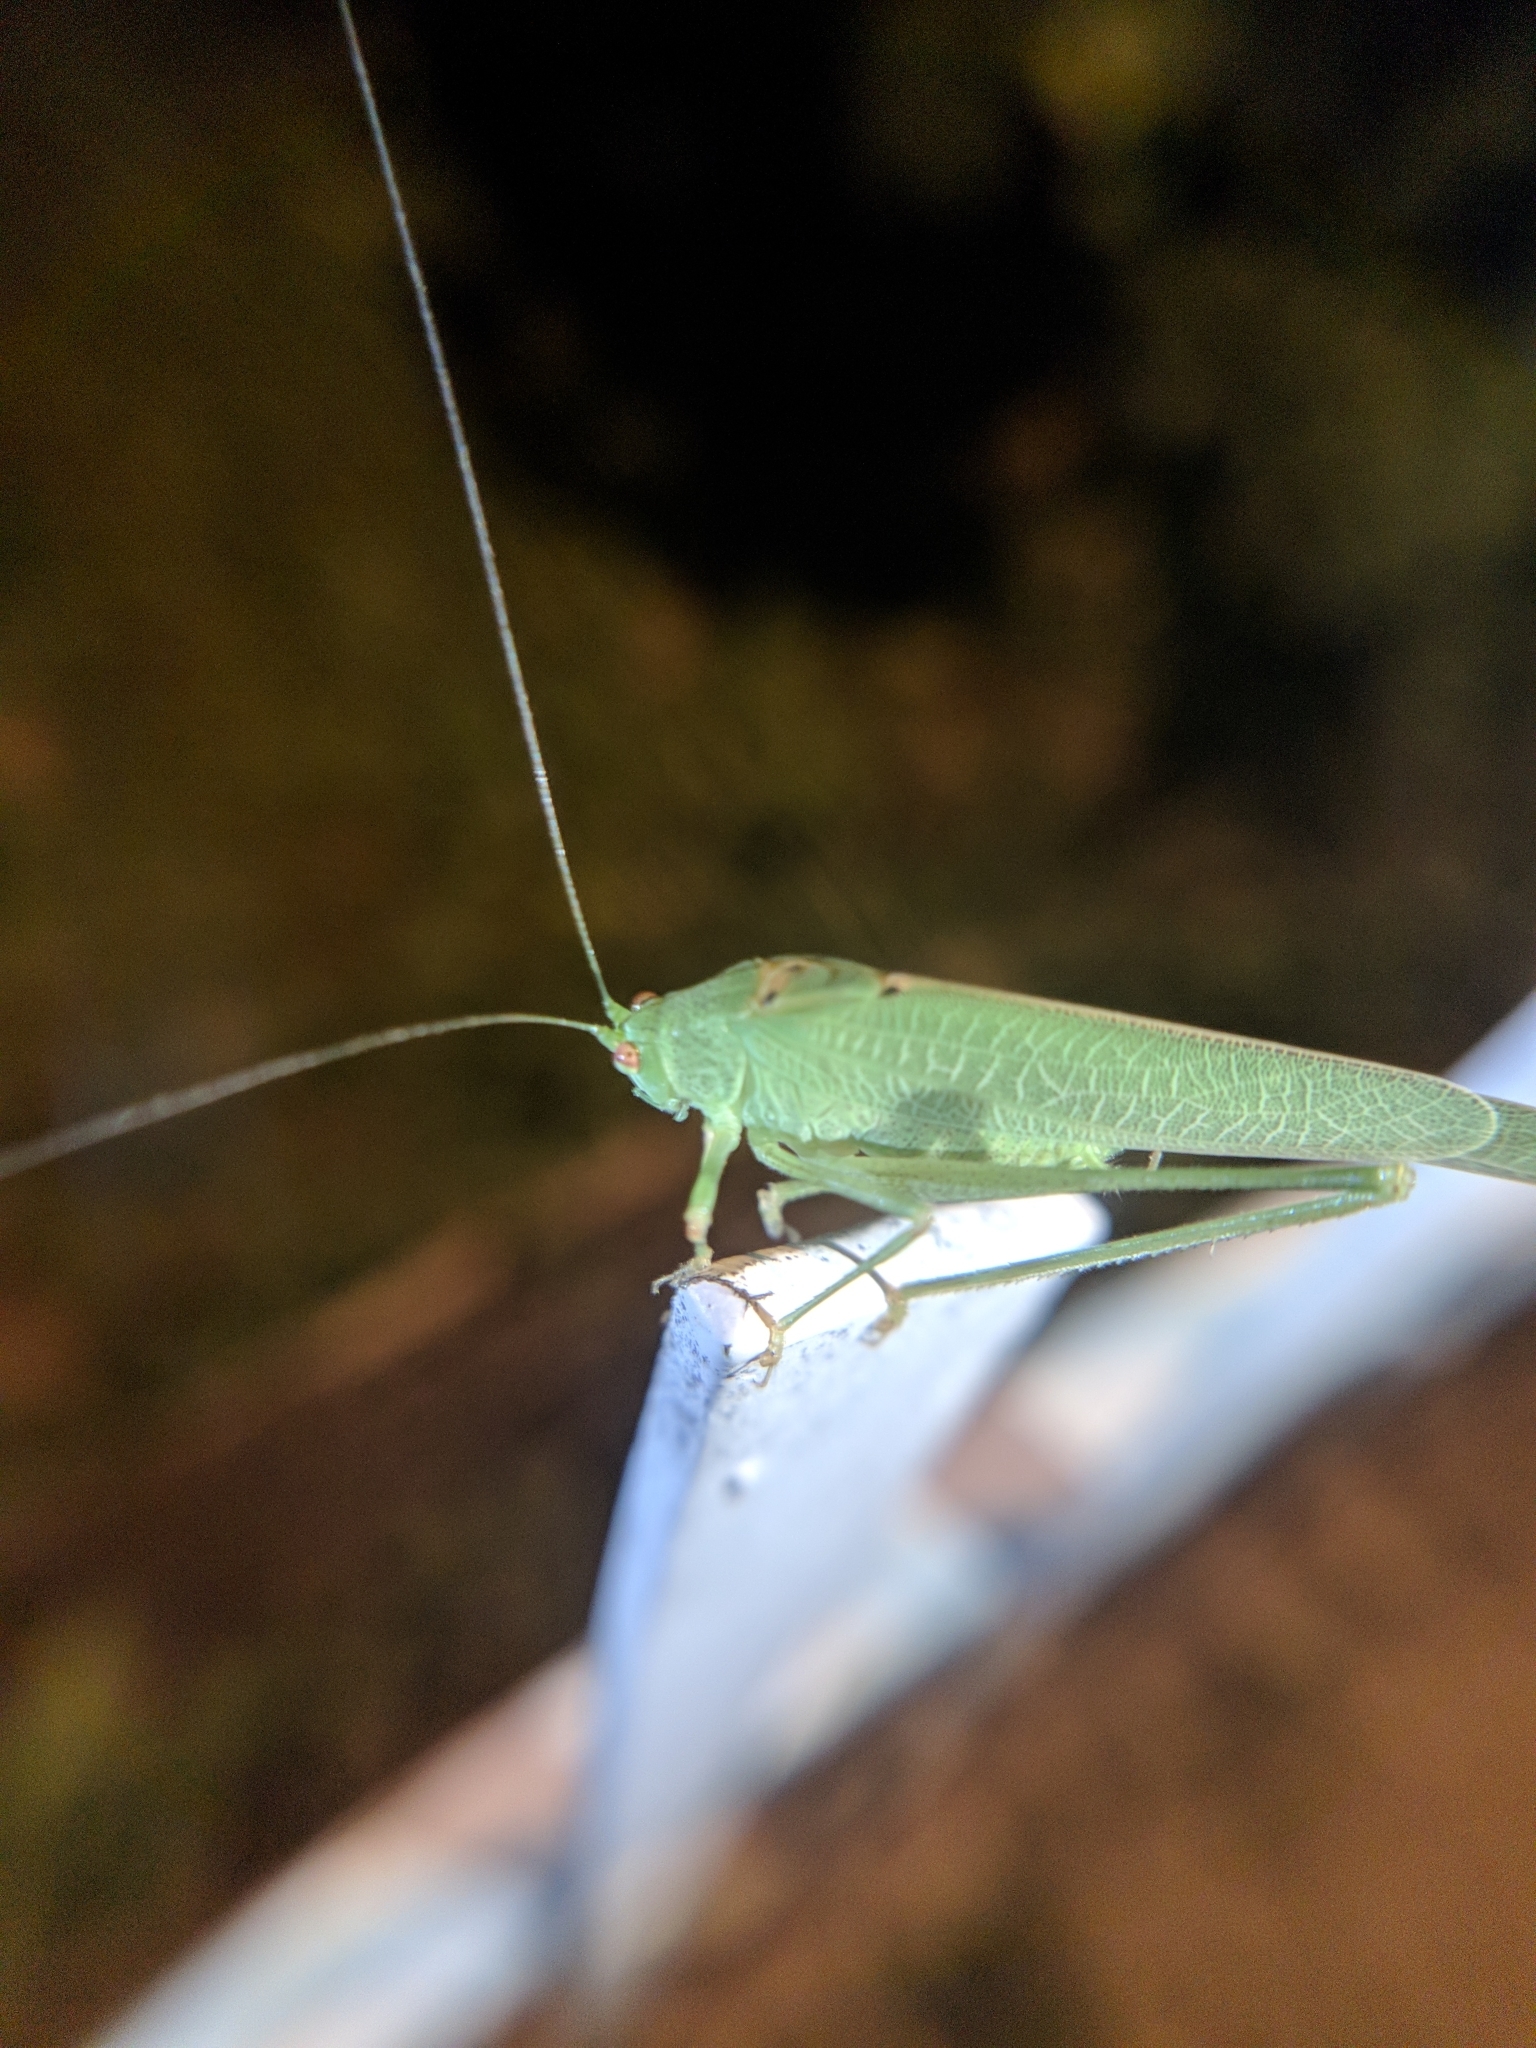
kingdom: Animalia
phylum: Arthropoda
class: Insecta
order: Orthoptera
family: Tettigoniidae
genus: Phaneroptera
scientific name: Phaneroptera nana
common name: Southern sickle bush-cricket
